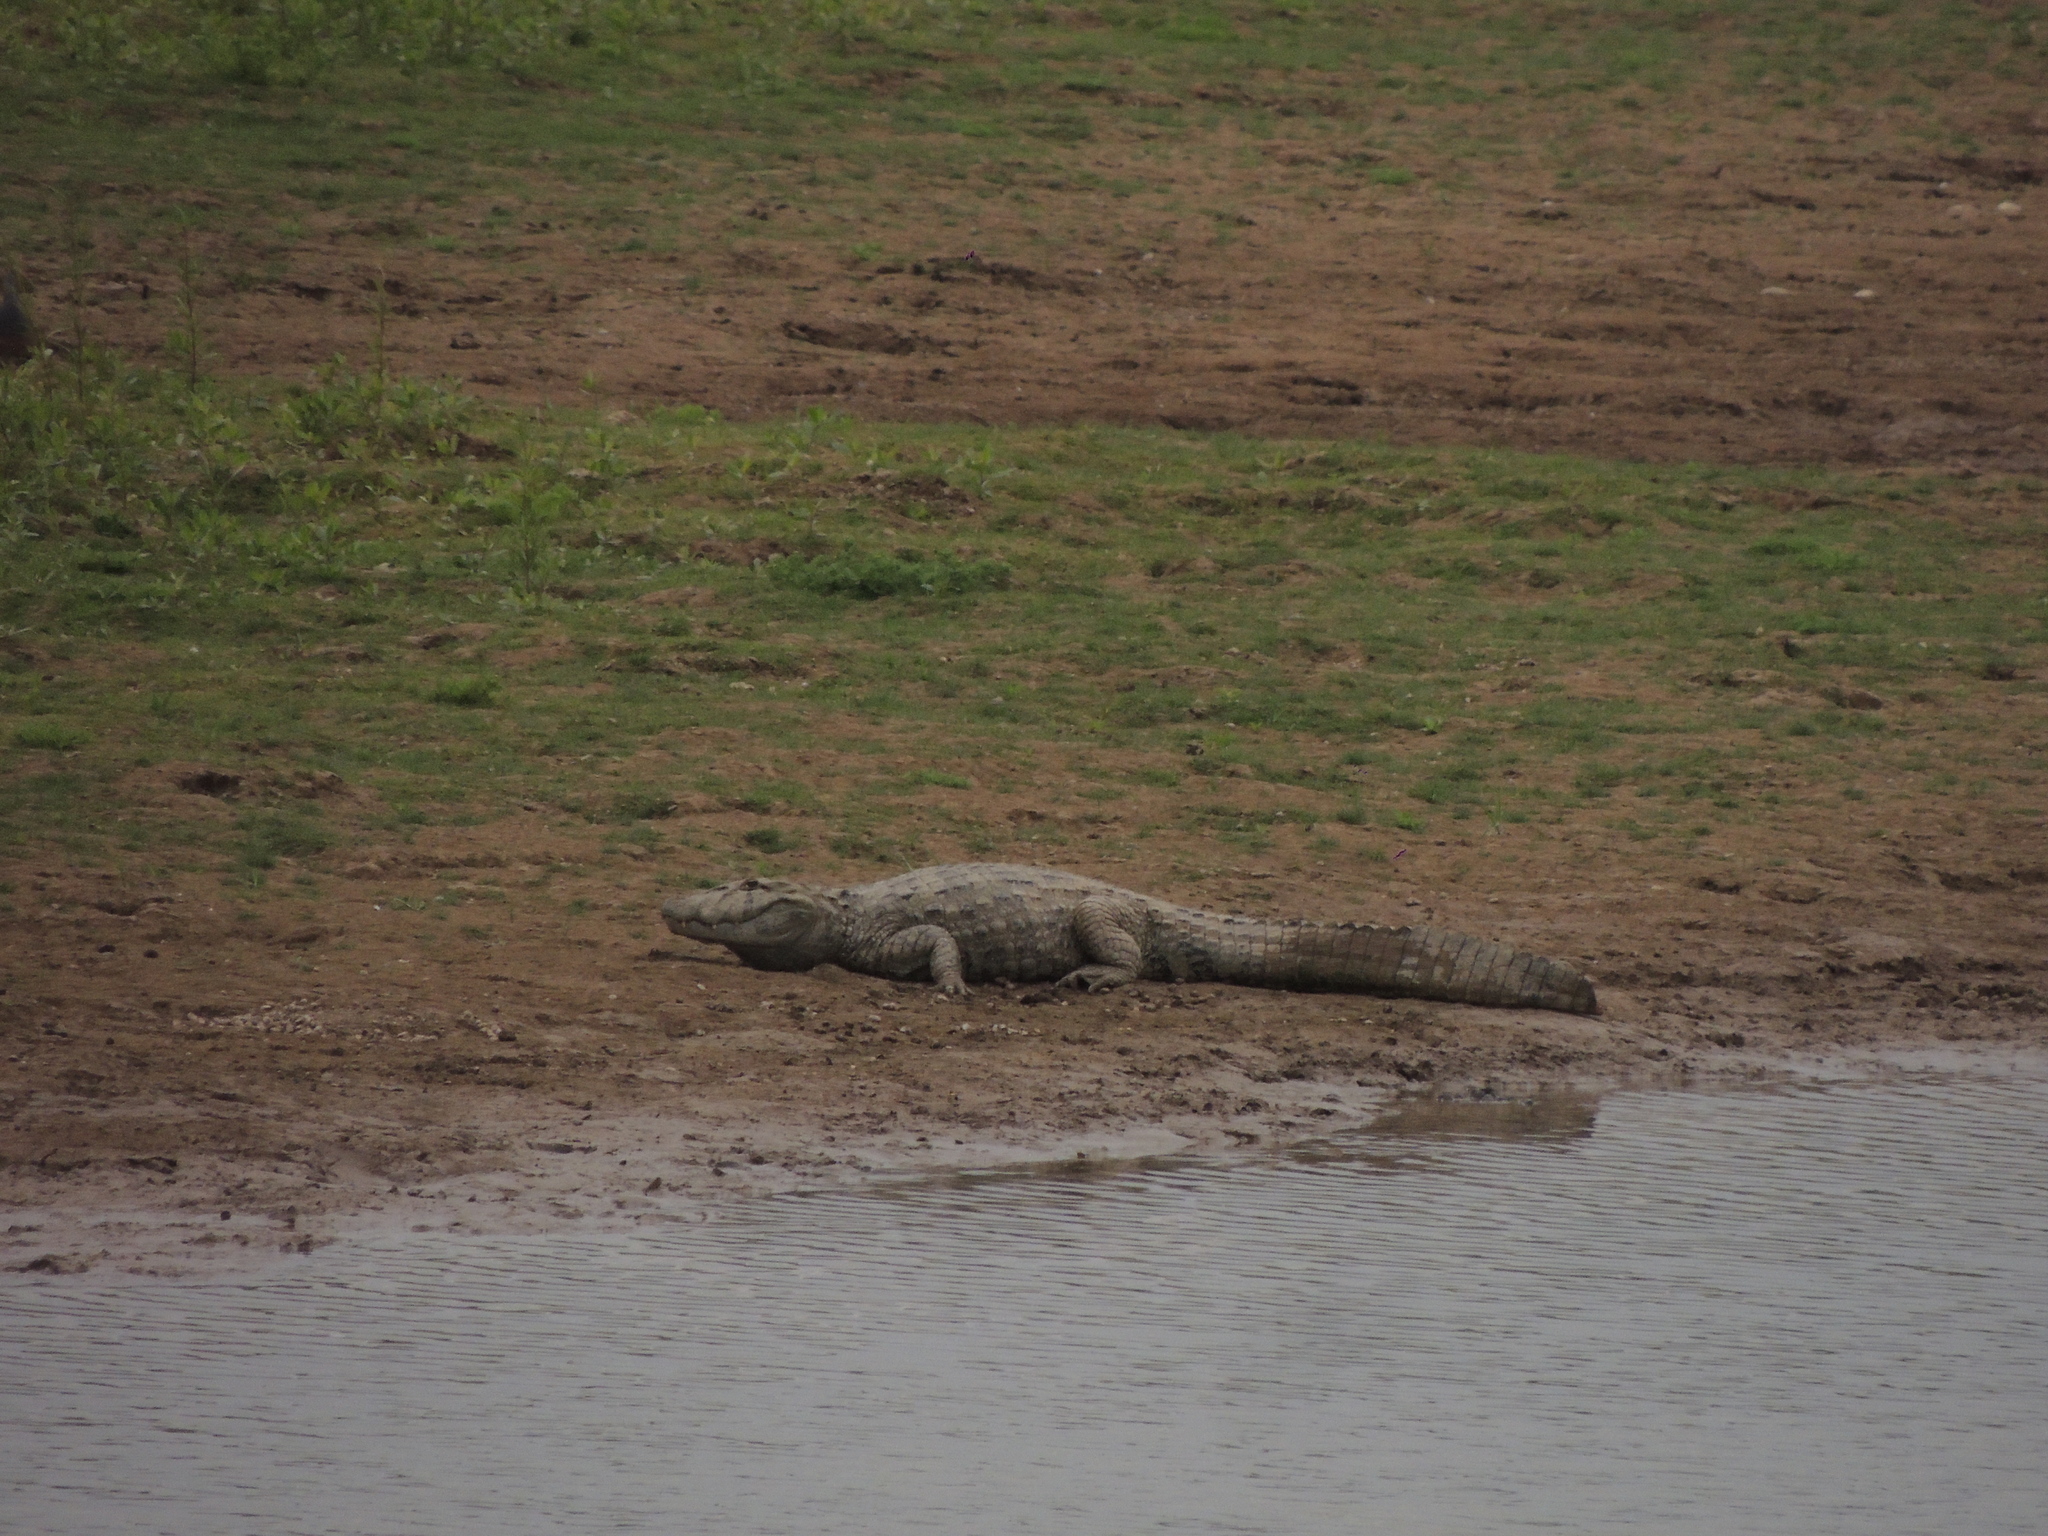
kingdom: Animalia
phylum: Chordata
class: Crocodylia
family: Alligatoridae
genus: Caiman
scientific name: Caiman latirostris
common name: Broad-snouted caiman
